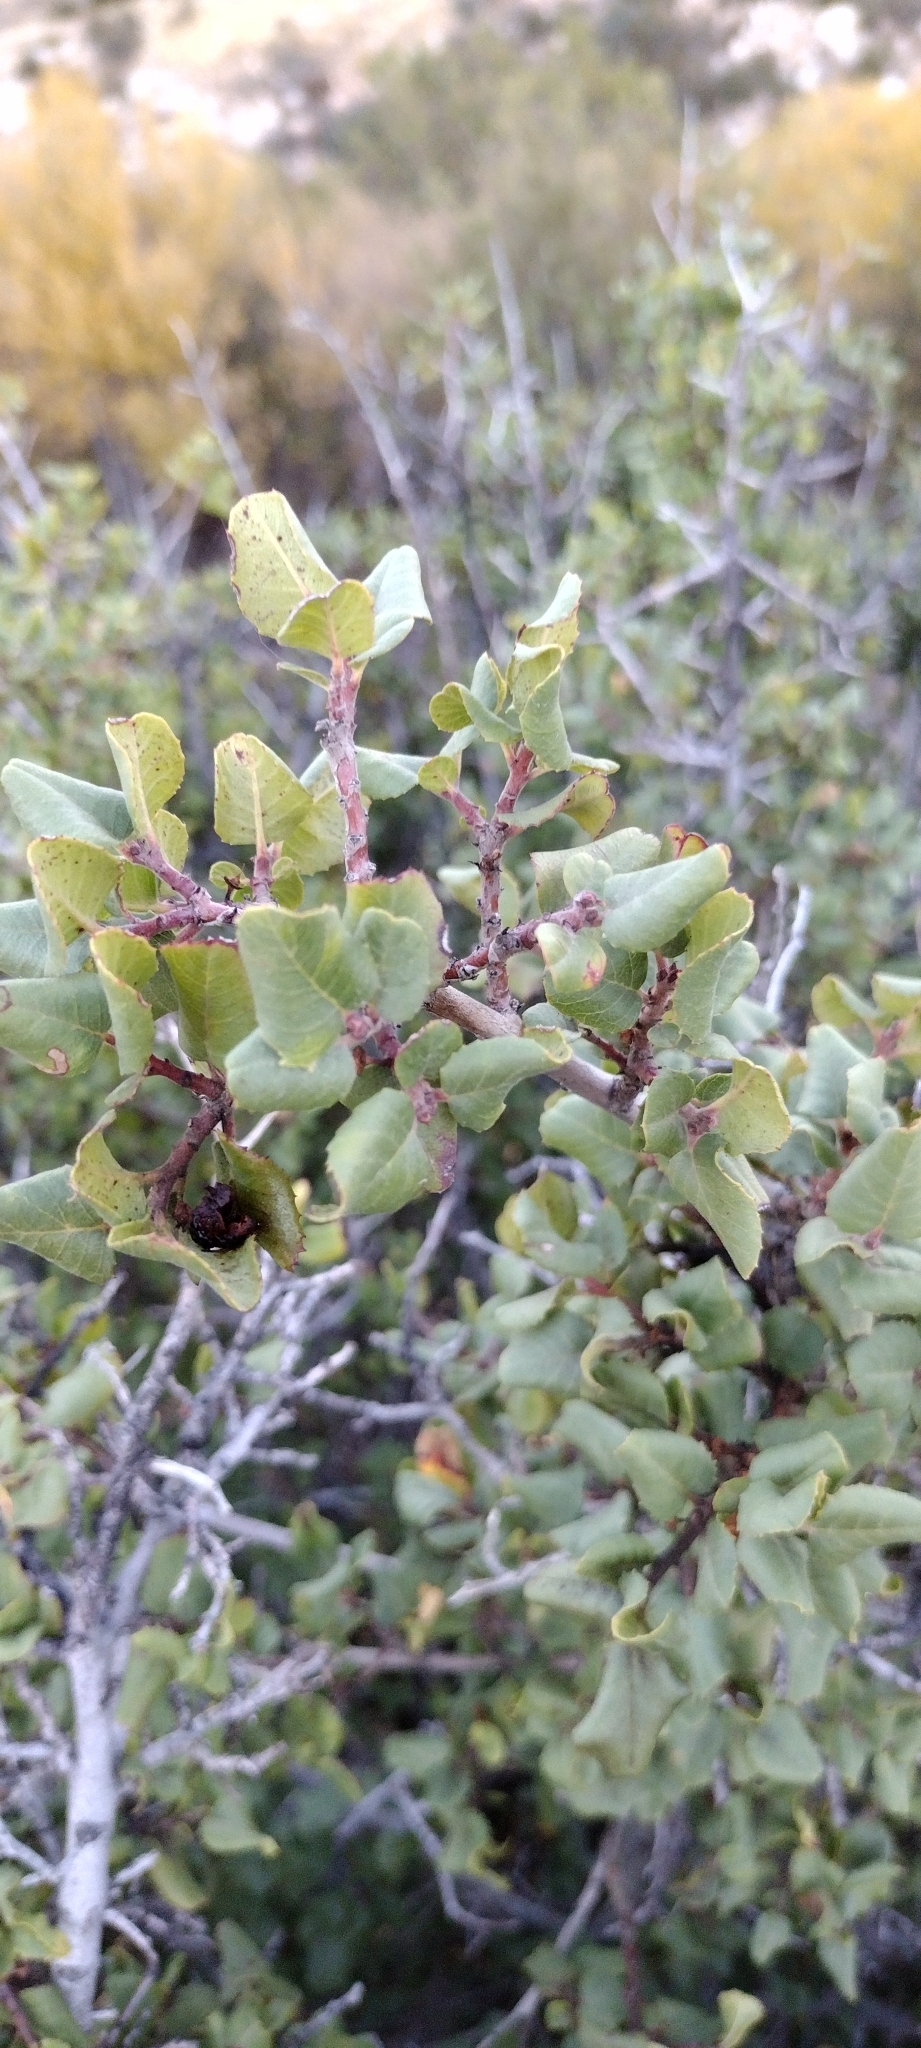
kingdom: Plantae
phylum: Tracheophyta
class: Magnoliopsida
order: Rosales
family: Rhamnaceae
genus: Endotropis
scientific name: Endotropis crocea
